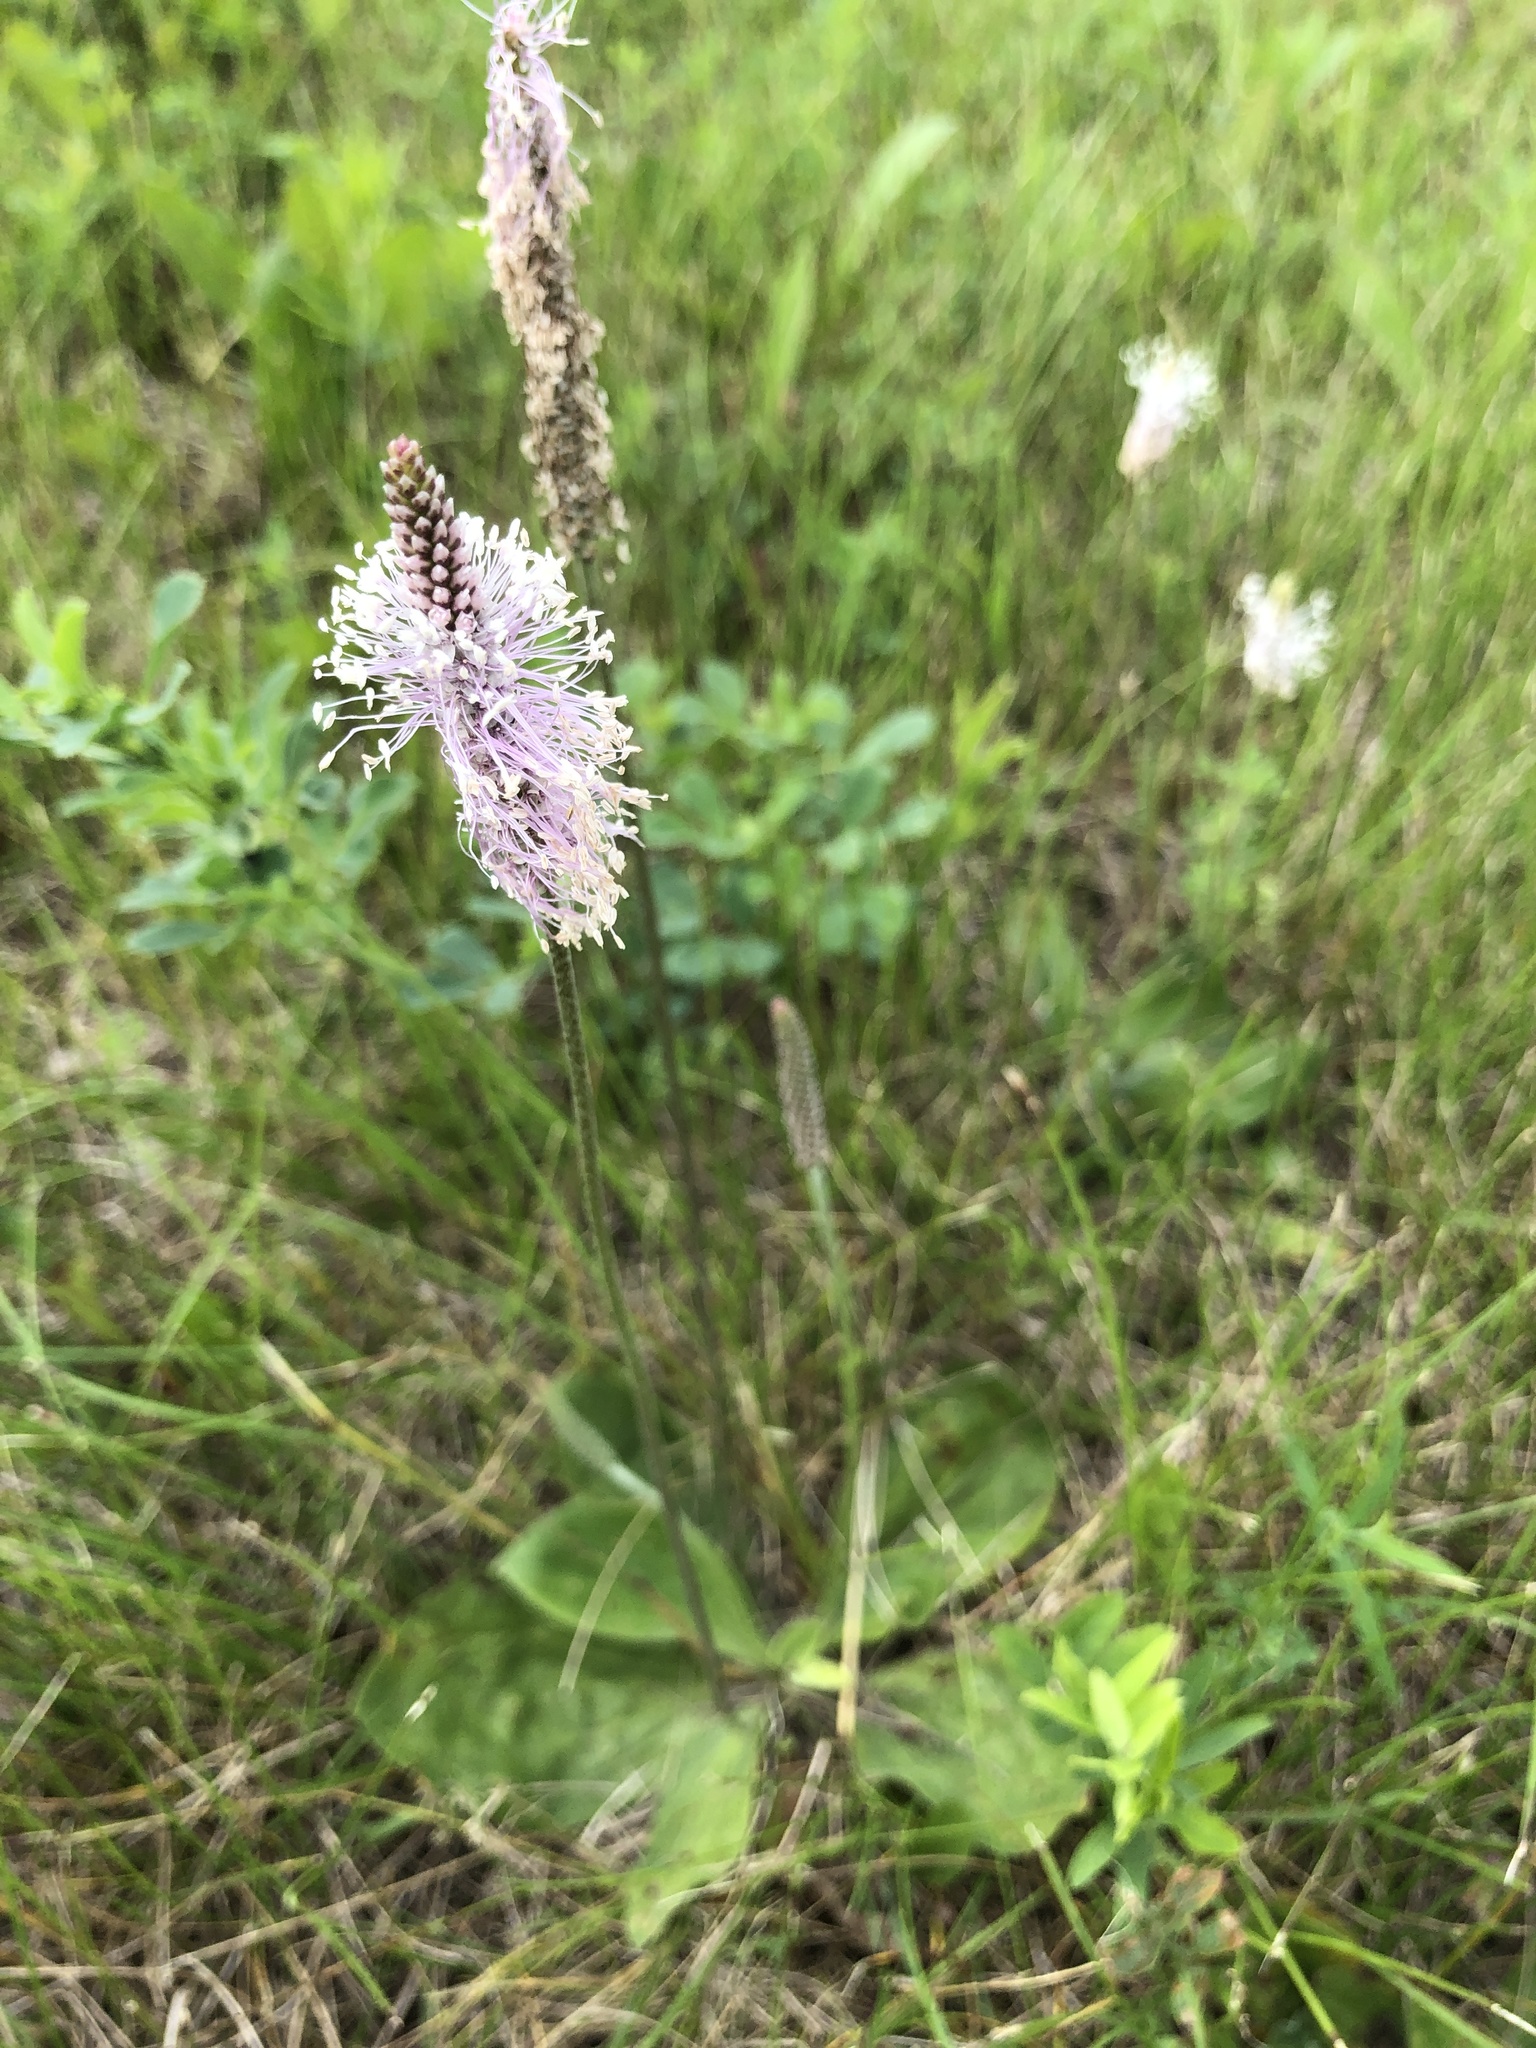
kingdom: Plantae
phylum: Tracheophyta
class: Magnoliopsida
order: Lamiales
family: Plantaginaceae
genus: Plantago
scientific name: Plantago media
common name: Hoary plantain
